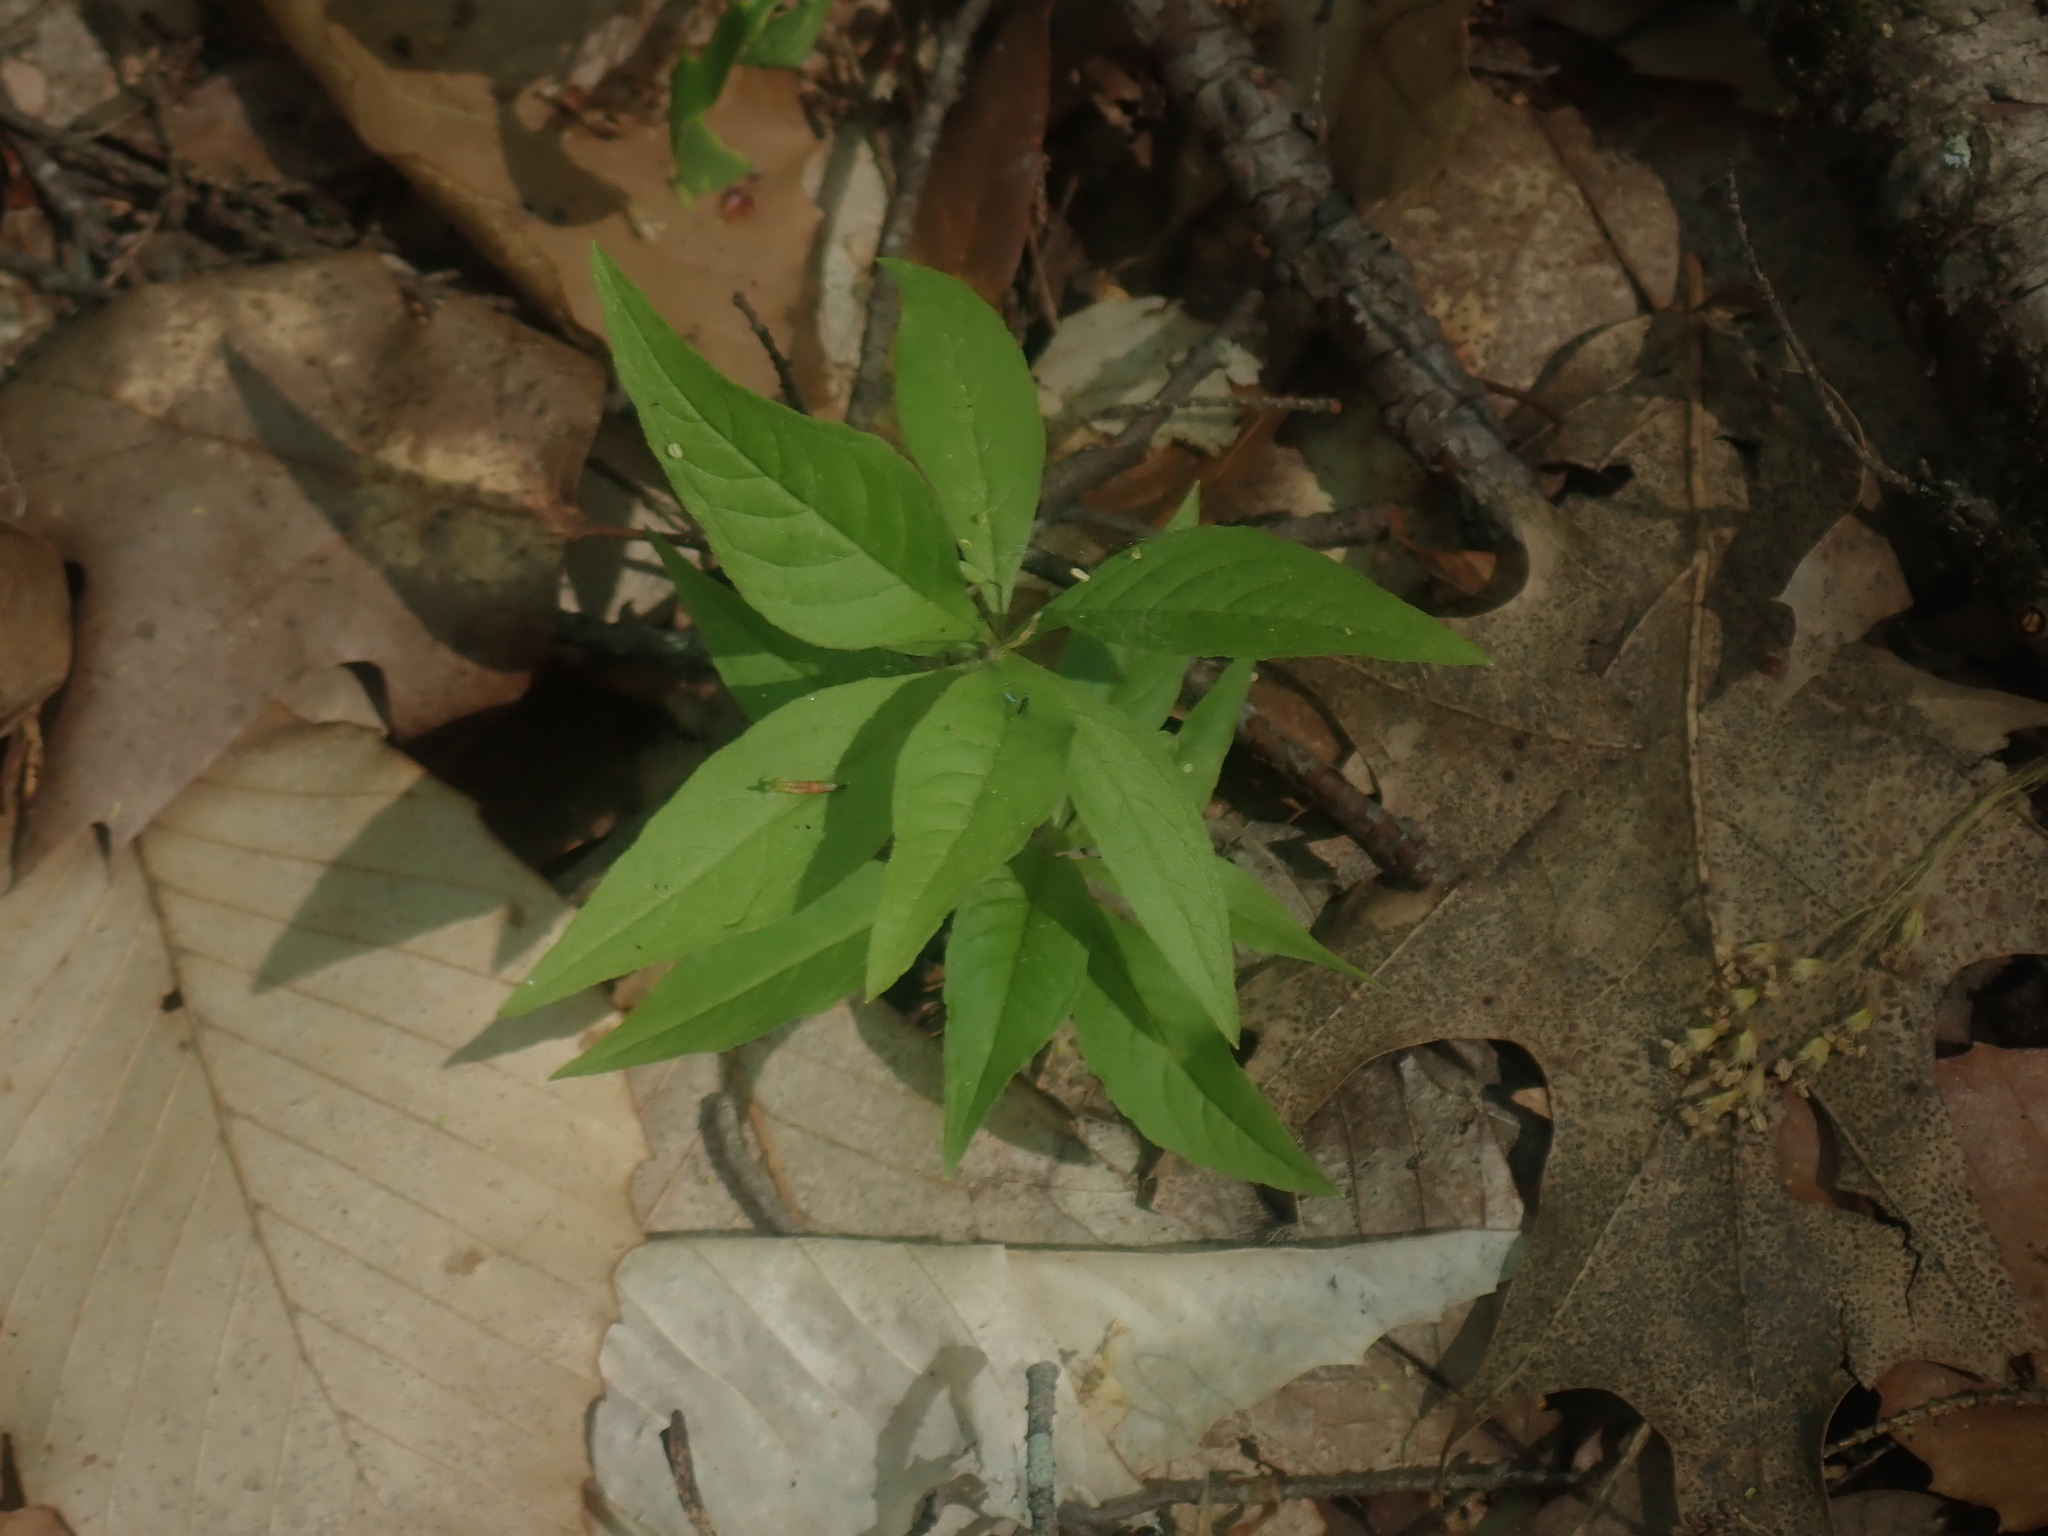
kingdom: Plantae
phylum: Tracheophyta
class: Magnoliopsida
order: Ericales
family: Primulaceae
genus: Lysimachia
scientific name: Lysimachia borealis
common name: American starflower
